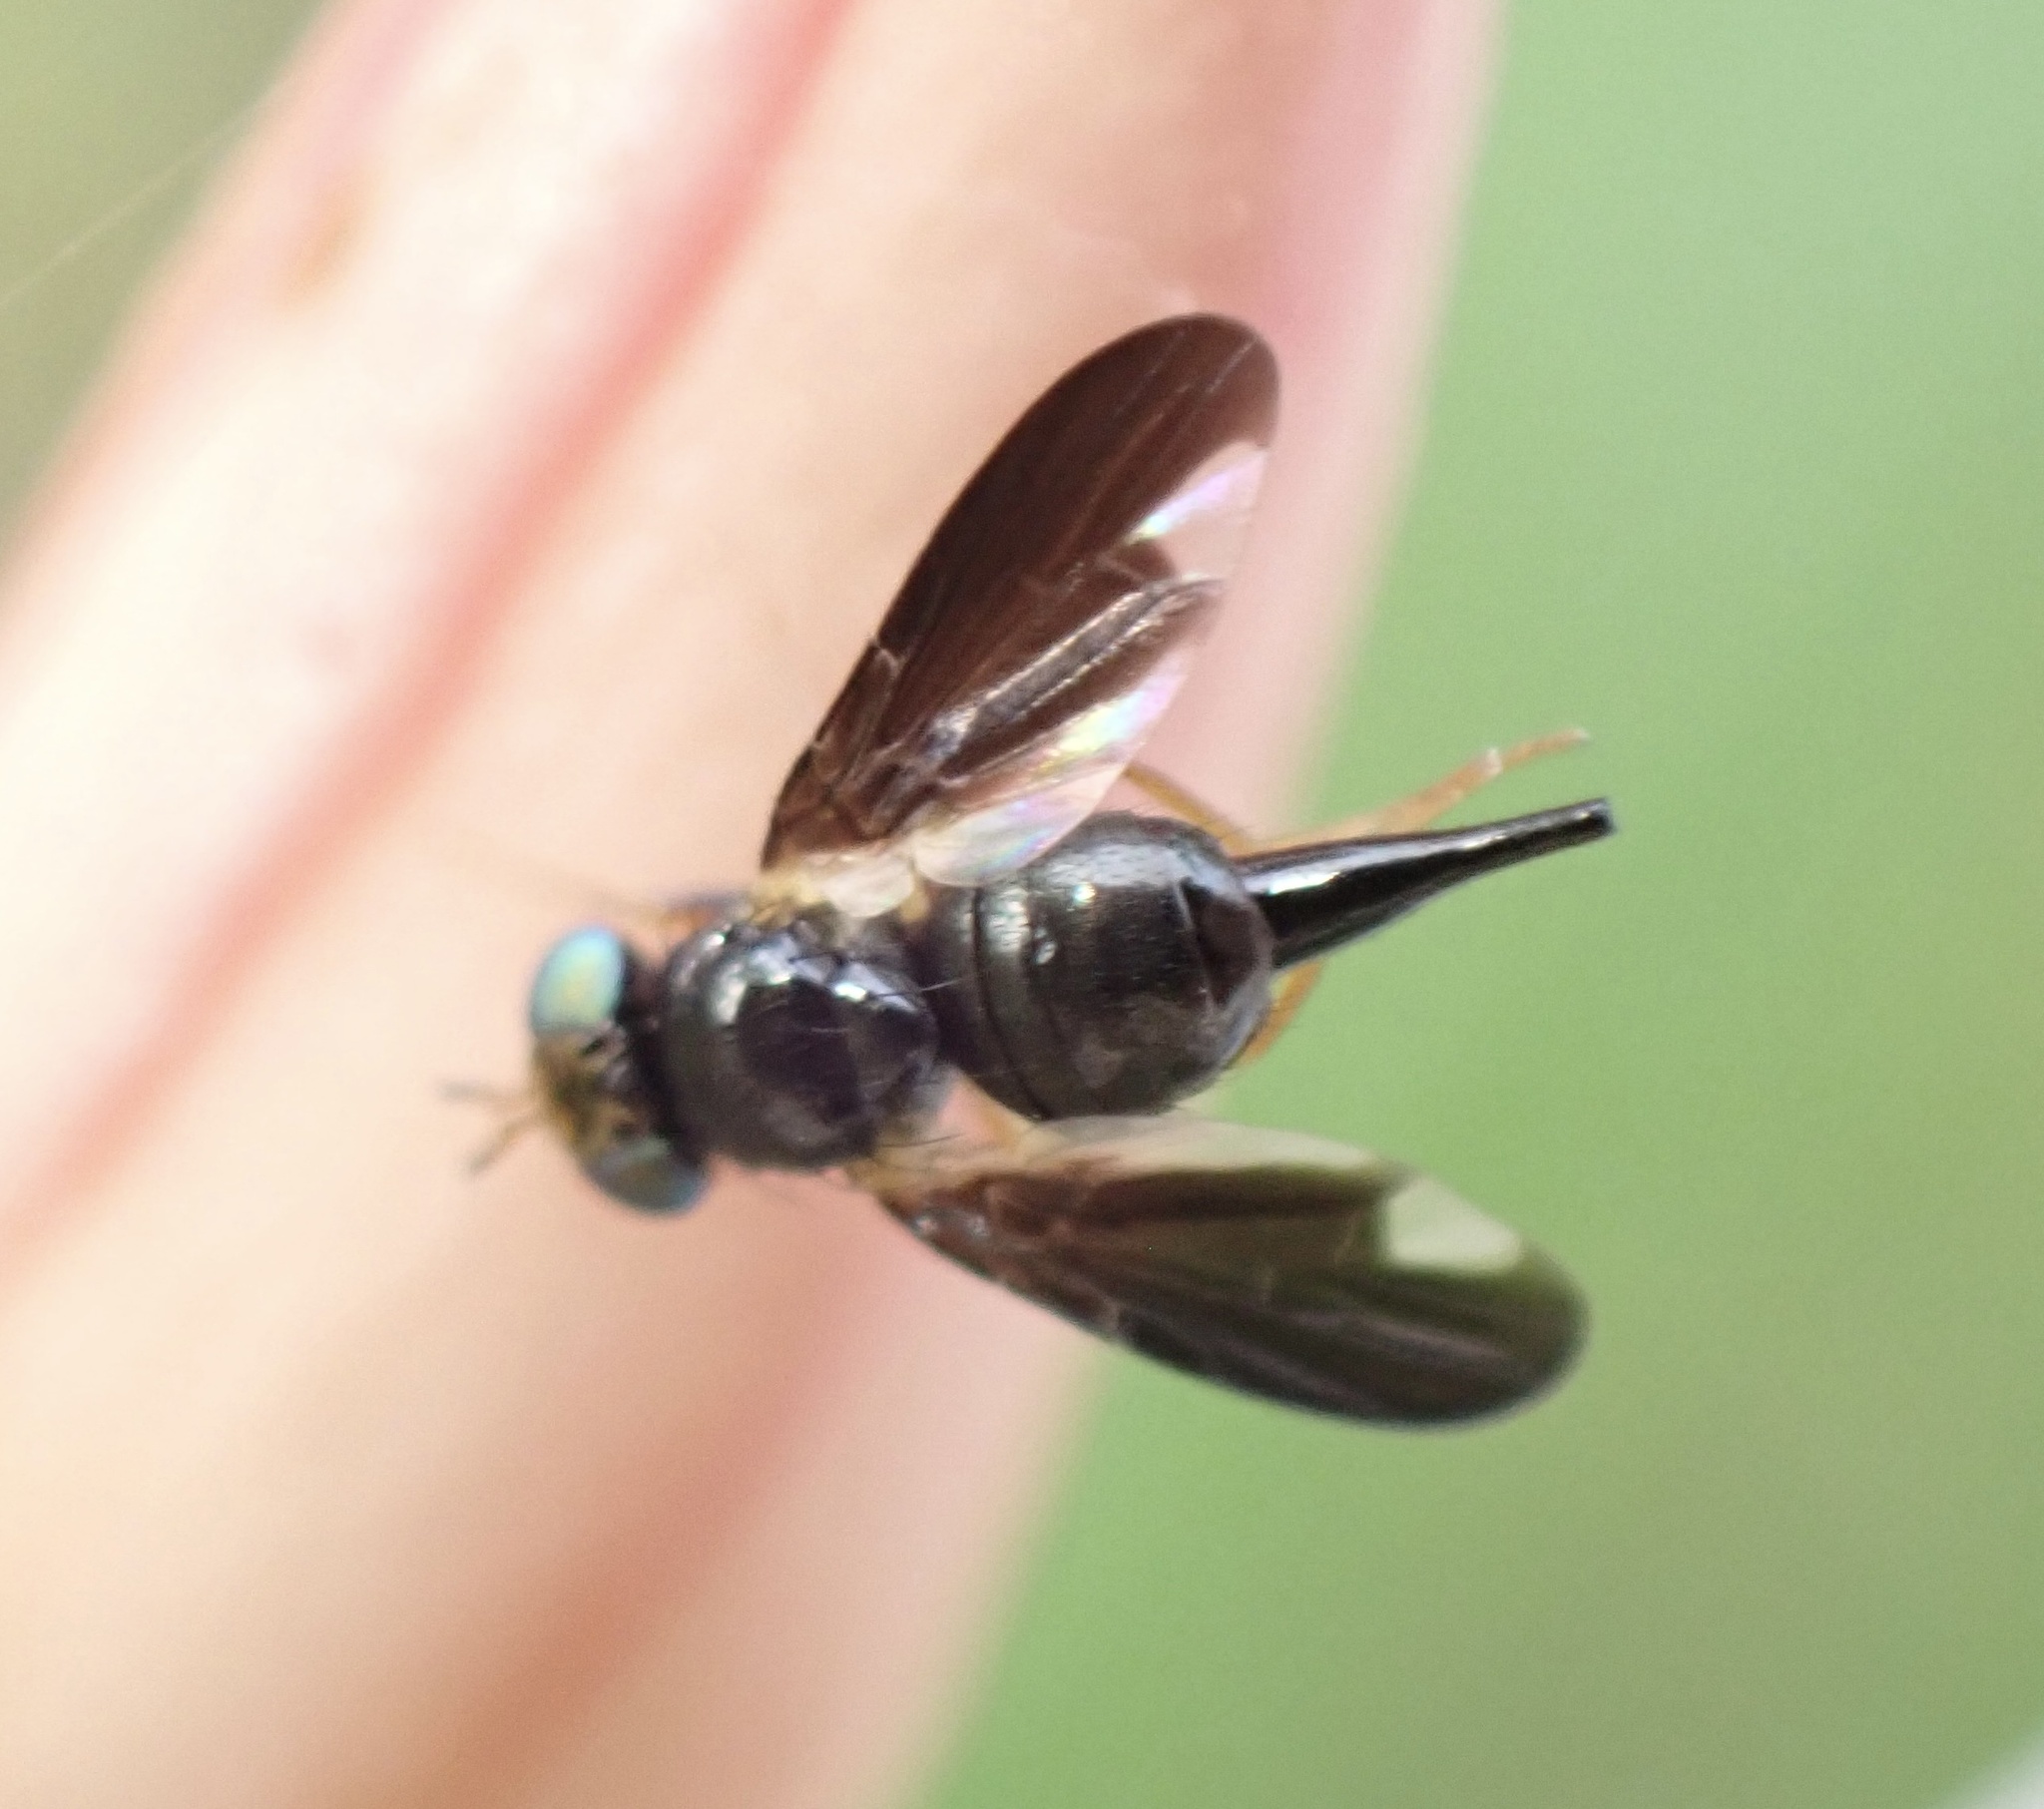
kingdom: Animalia
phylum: Arthropoda
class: Insecta
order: Diptera
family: Tephritidae
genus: Katonaia
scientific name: Katonaia hemileopsis
